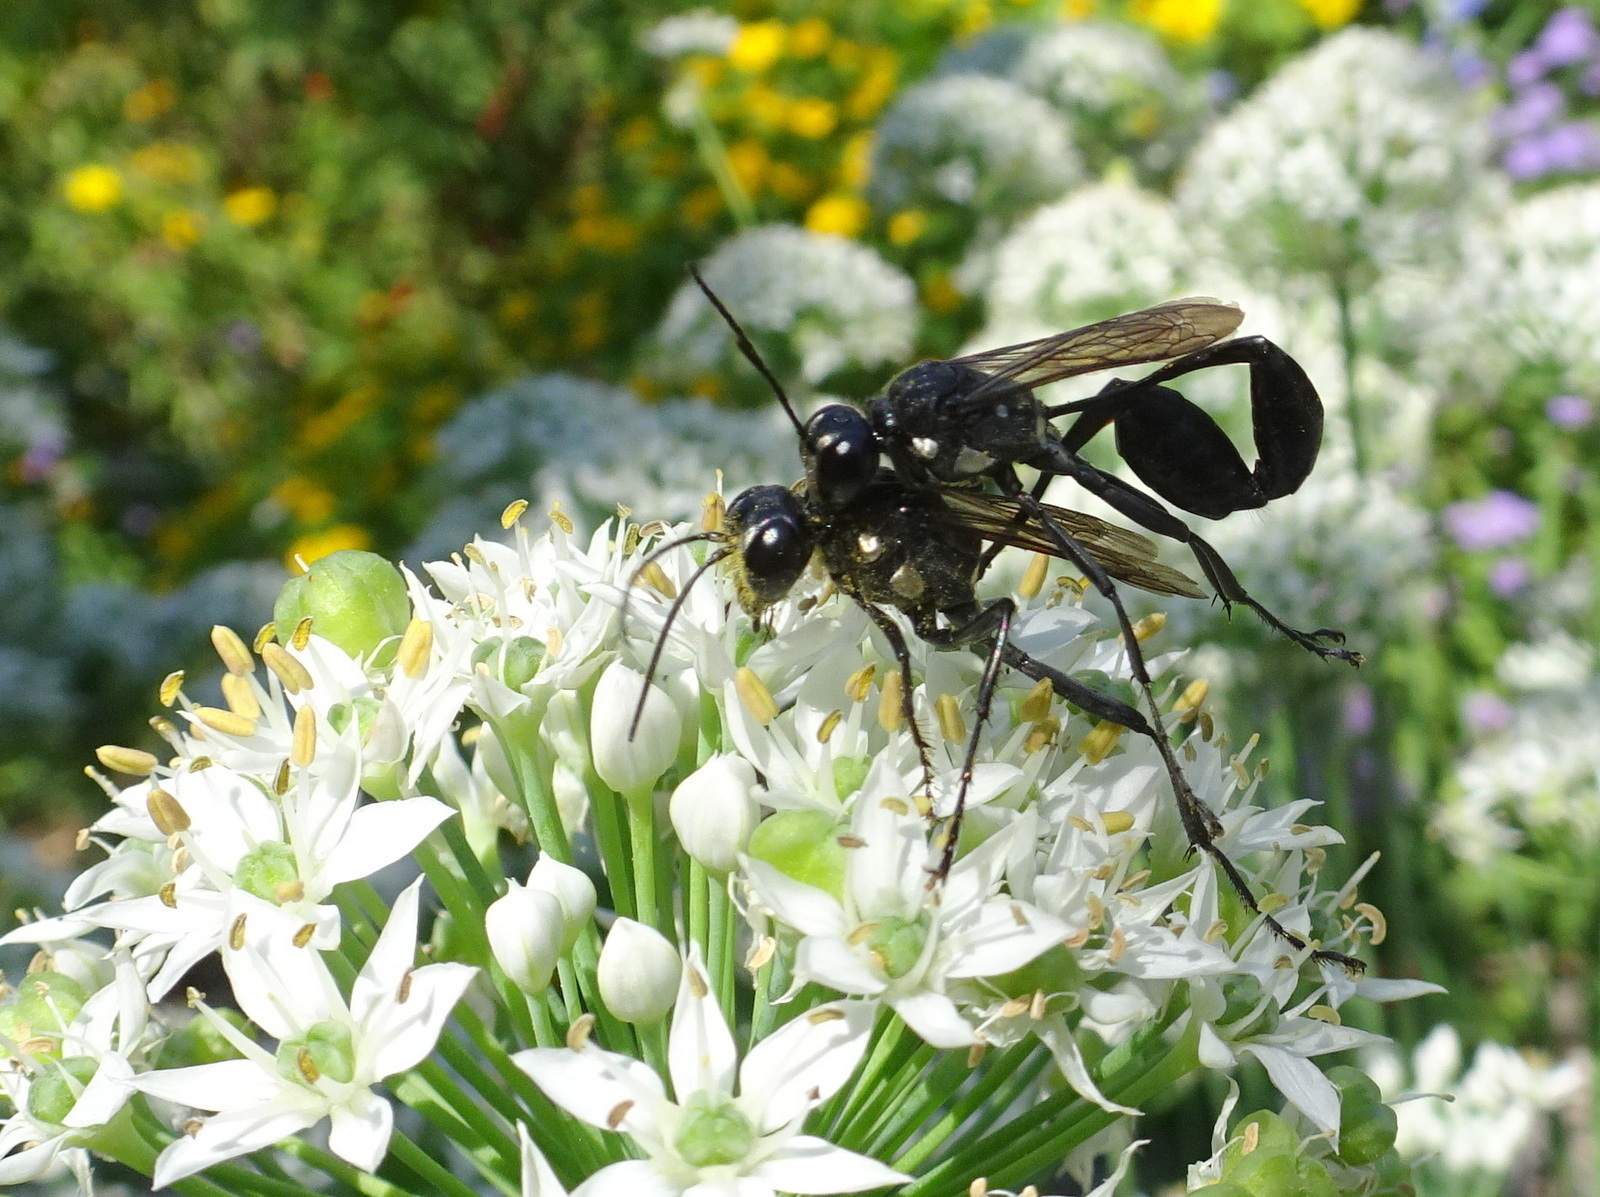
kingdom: Animalia
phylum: Arthropoda
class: Insecta
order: Hymenoptera
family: Sphecidae
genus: Eremnophila
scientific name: Eremnophila aureonotata
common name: Gold-marked thread-waisted wasp
